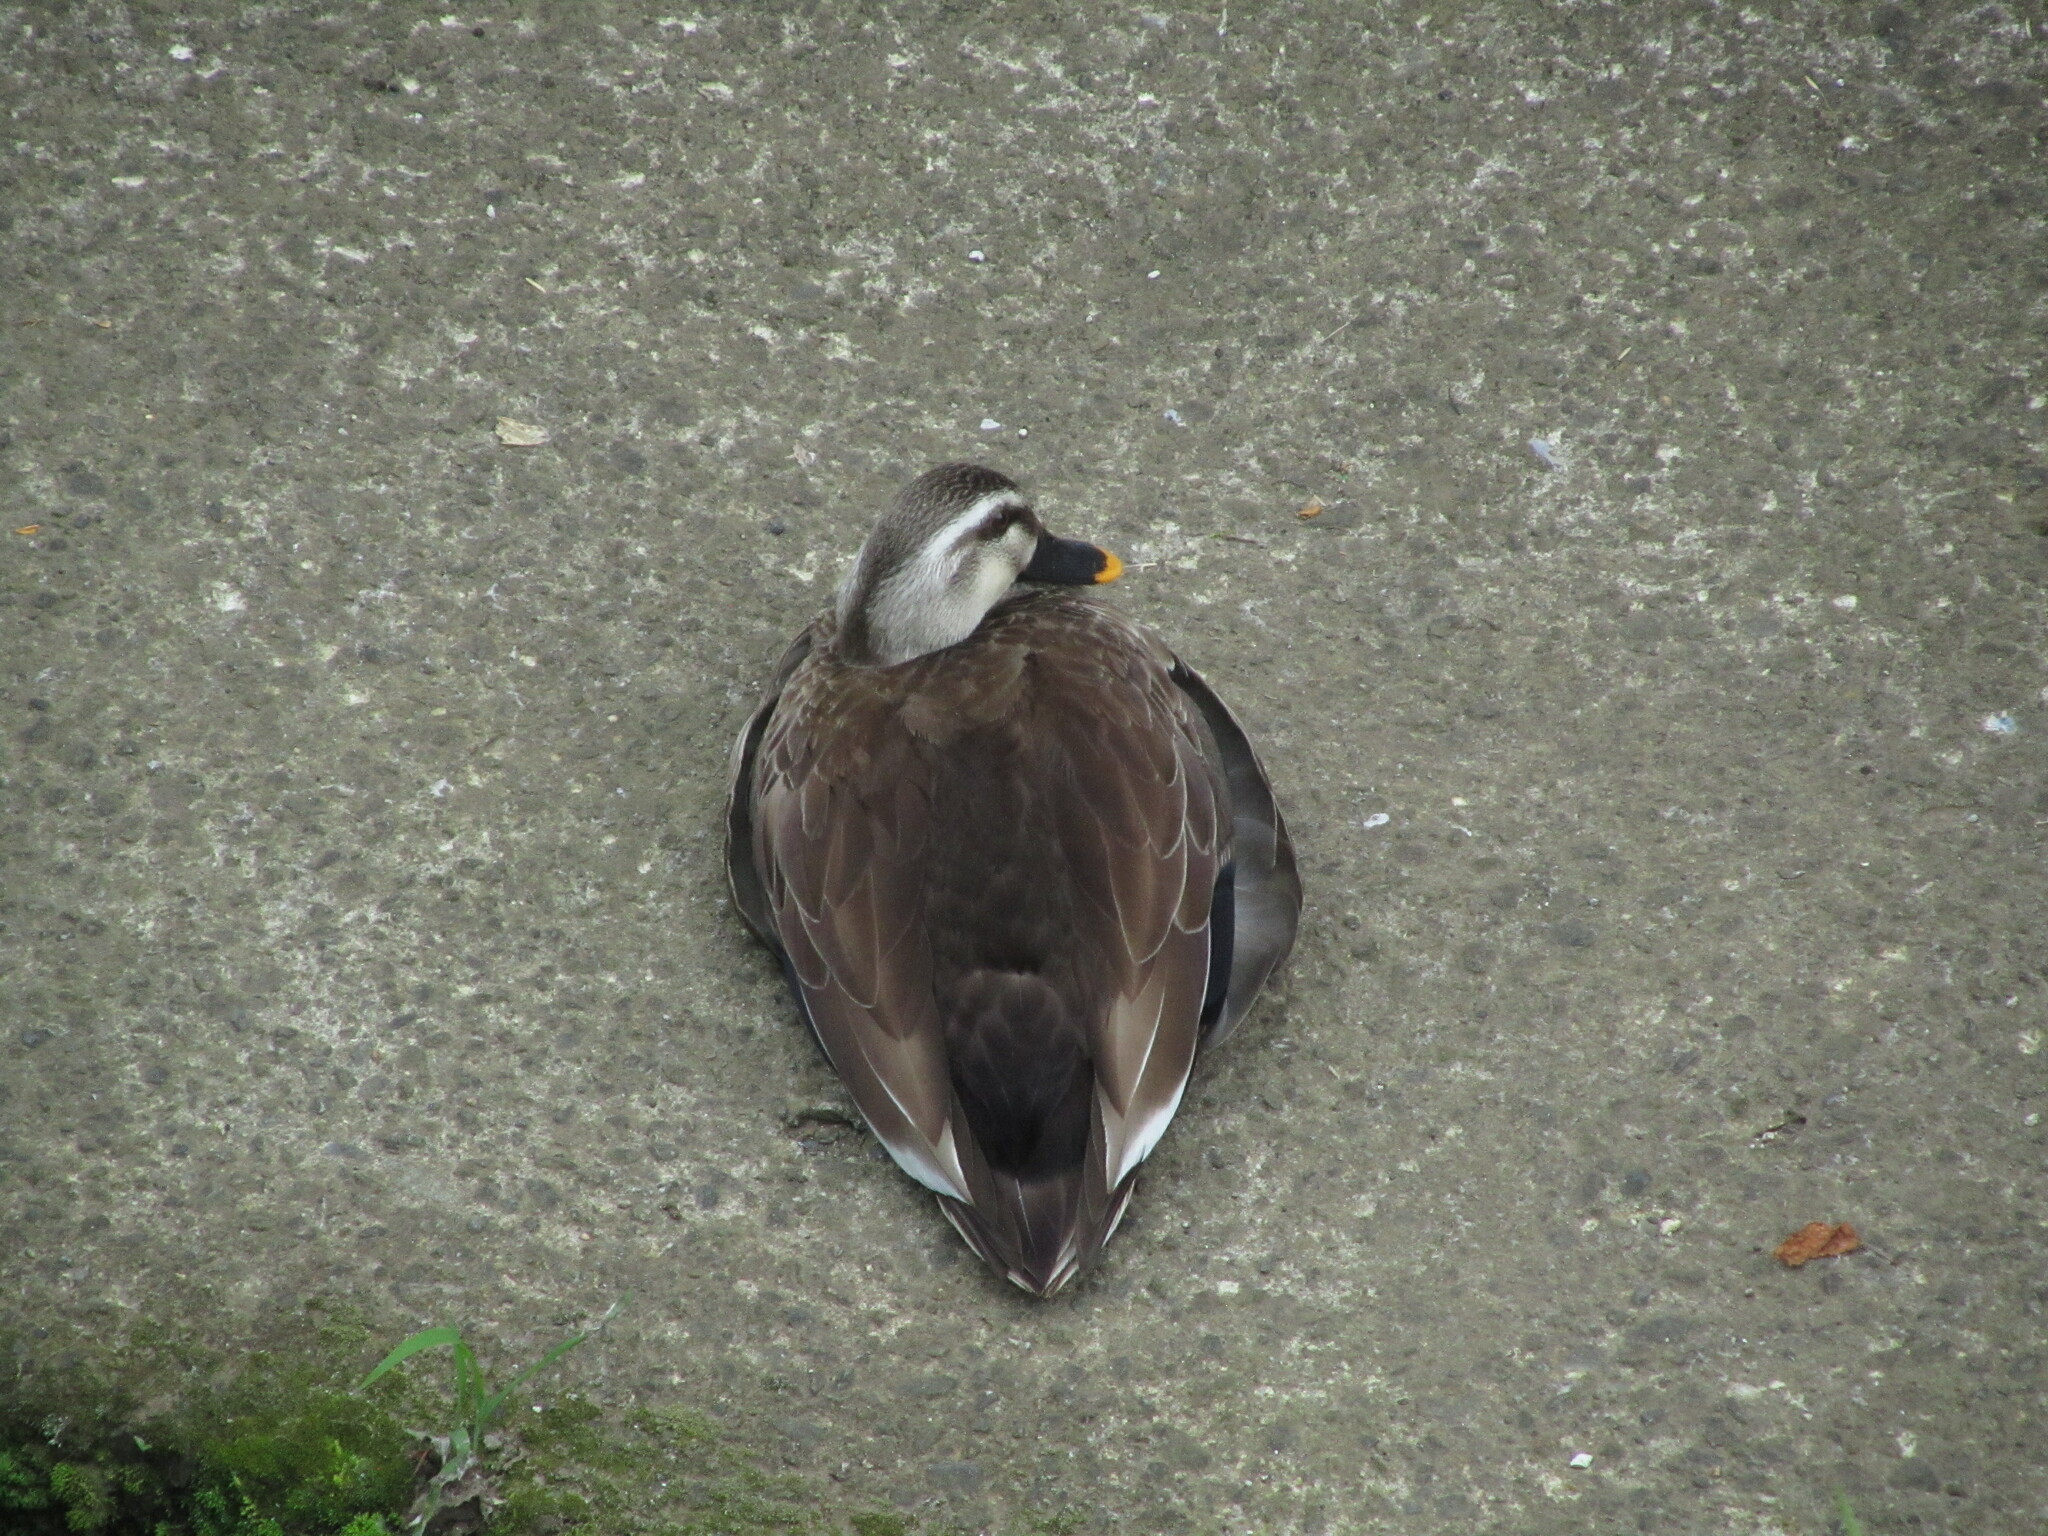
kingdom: Animalia
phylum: Chordata
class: Aves
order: Anseriformes
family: Anatidae
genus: Anas
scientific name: Anas zonorhyncha
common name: Eastern spot-billed duck
